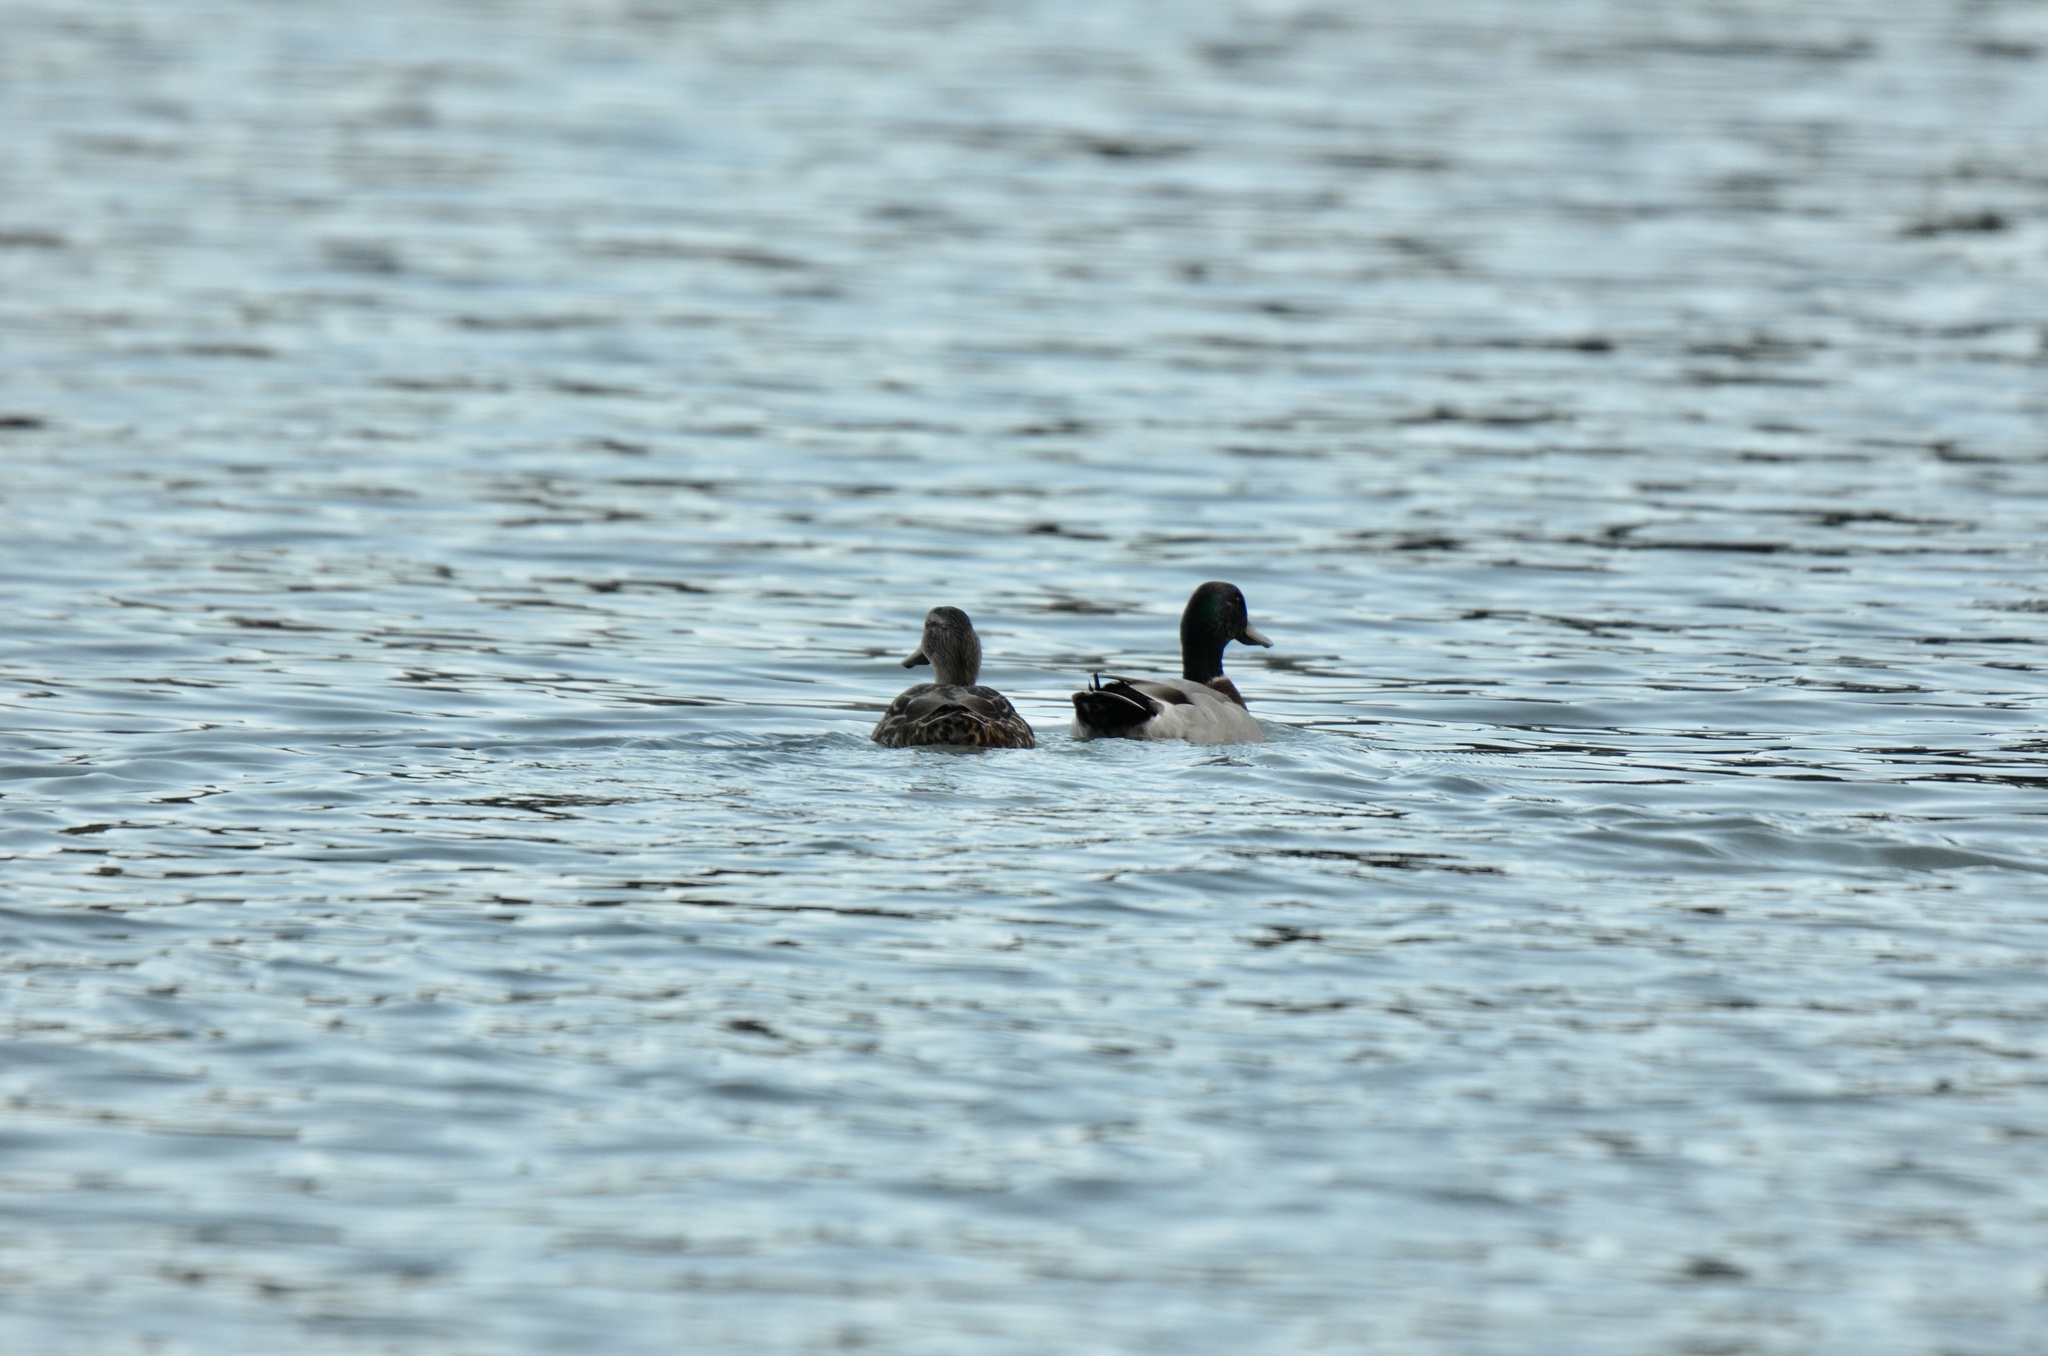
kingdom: Animalia
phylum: Chordata
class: Aves
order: Anseriformes
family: Anatidae
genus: Anas
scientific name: Anas platyrhynchos
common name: Mallard
